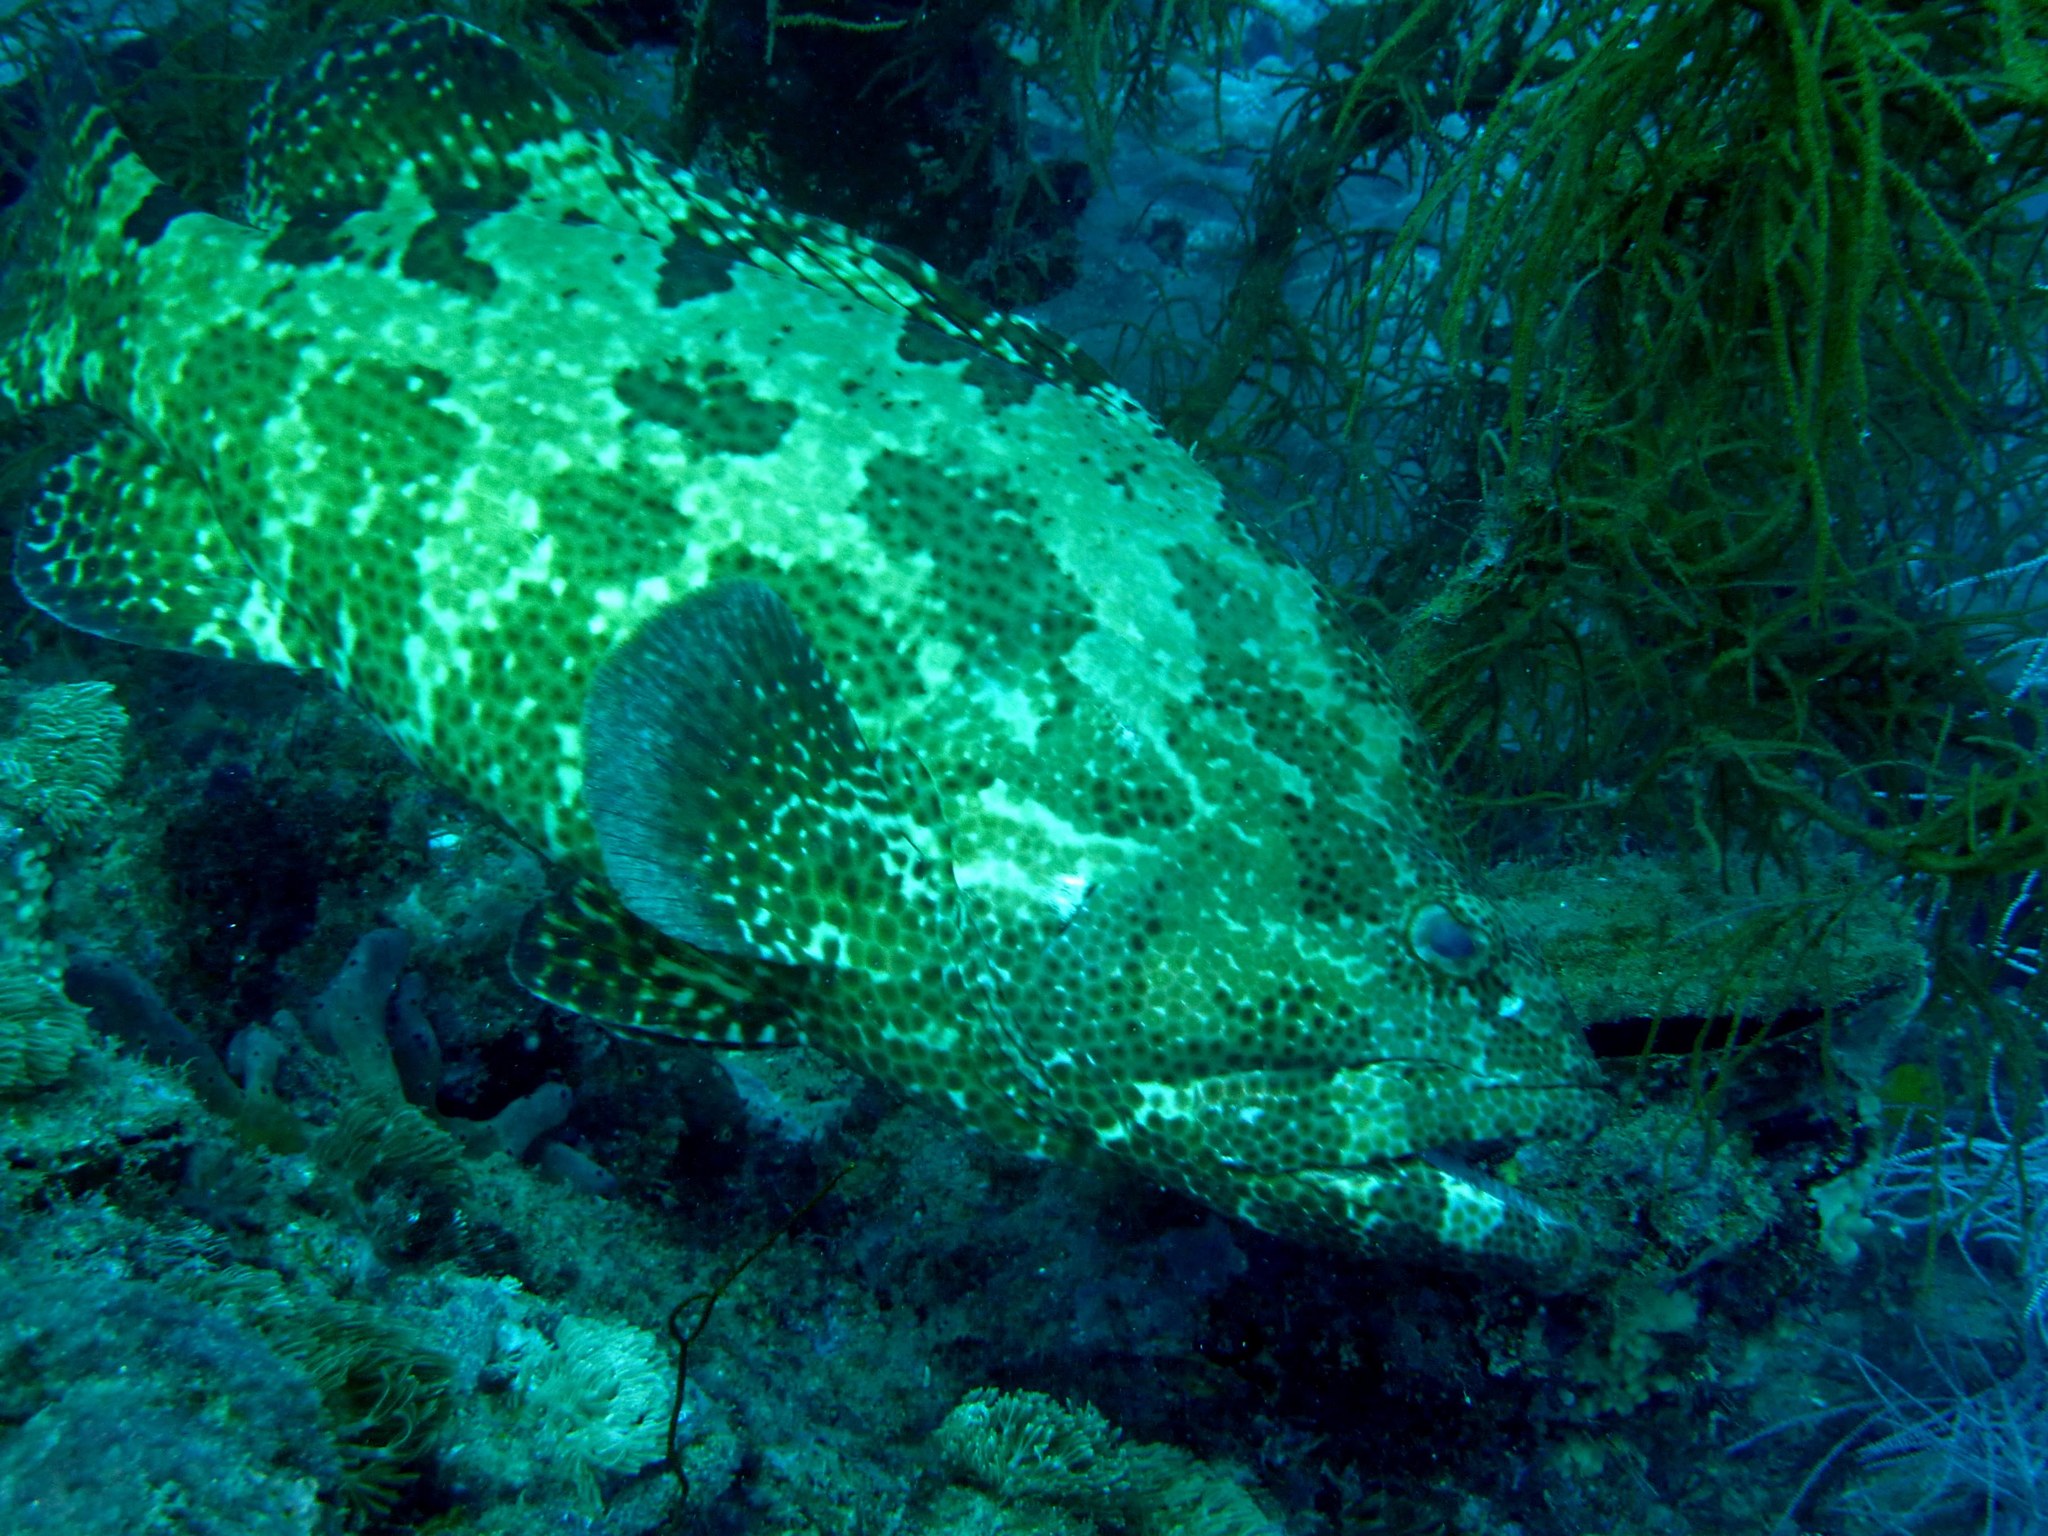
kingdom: Animalia
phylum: Chordata
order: Perciformes
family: Serranidae
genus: Epinephelus
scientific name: Epinephelus fuscoguttatus
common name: Brown-marbled grouper
